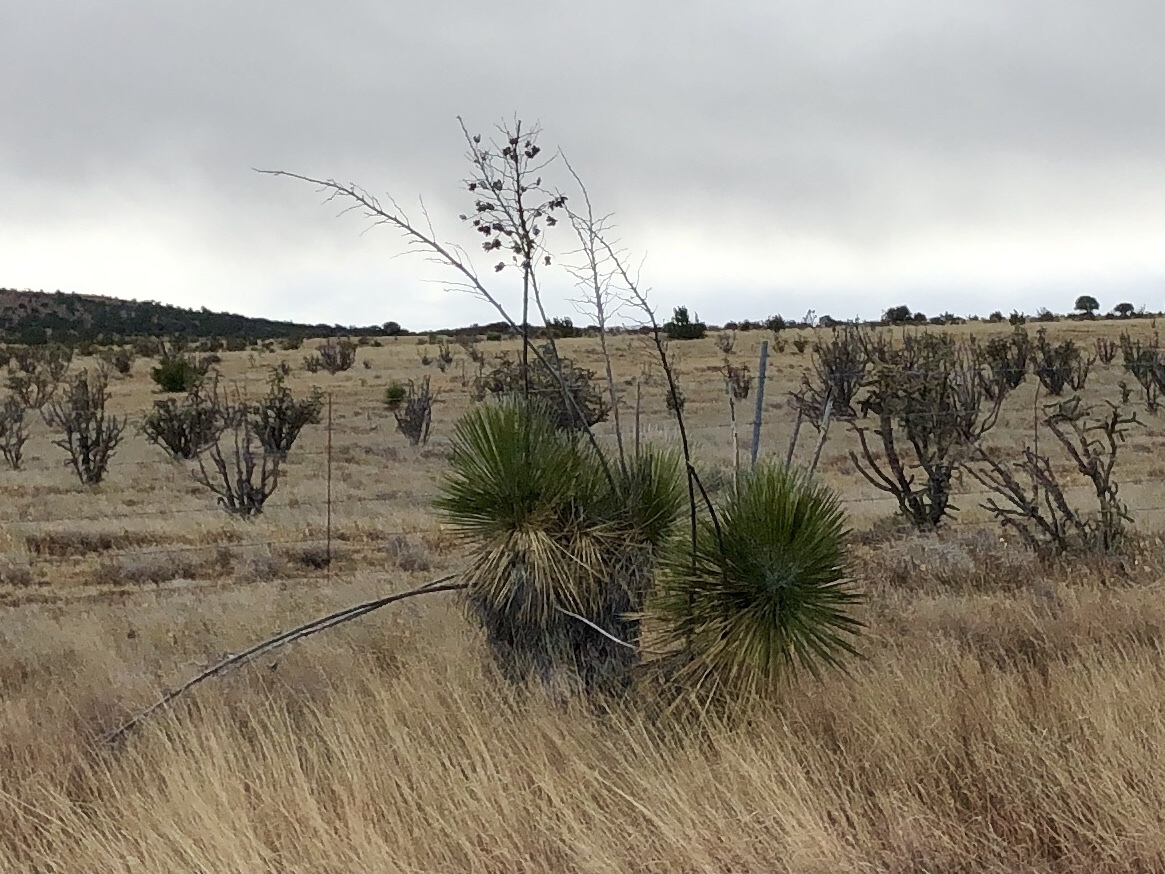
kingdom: Plantae
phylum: Tracheophyta
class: Liliopsida
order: Asparagales
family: Asparagaceae
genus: Yucca
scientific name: Yucca elata
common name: Palmella
